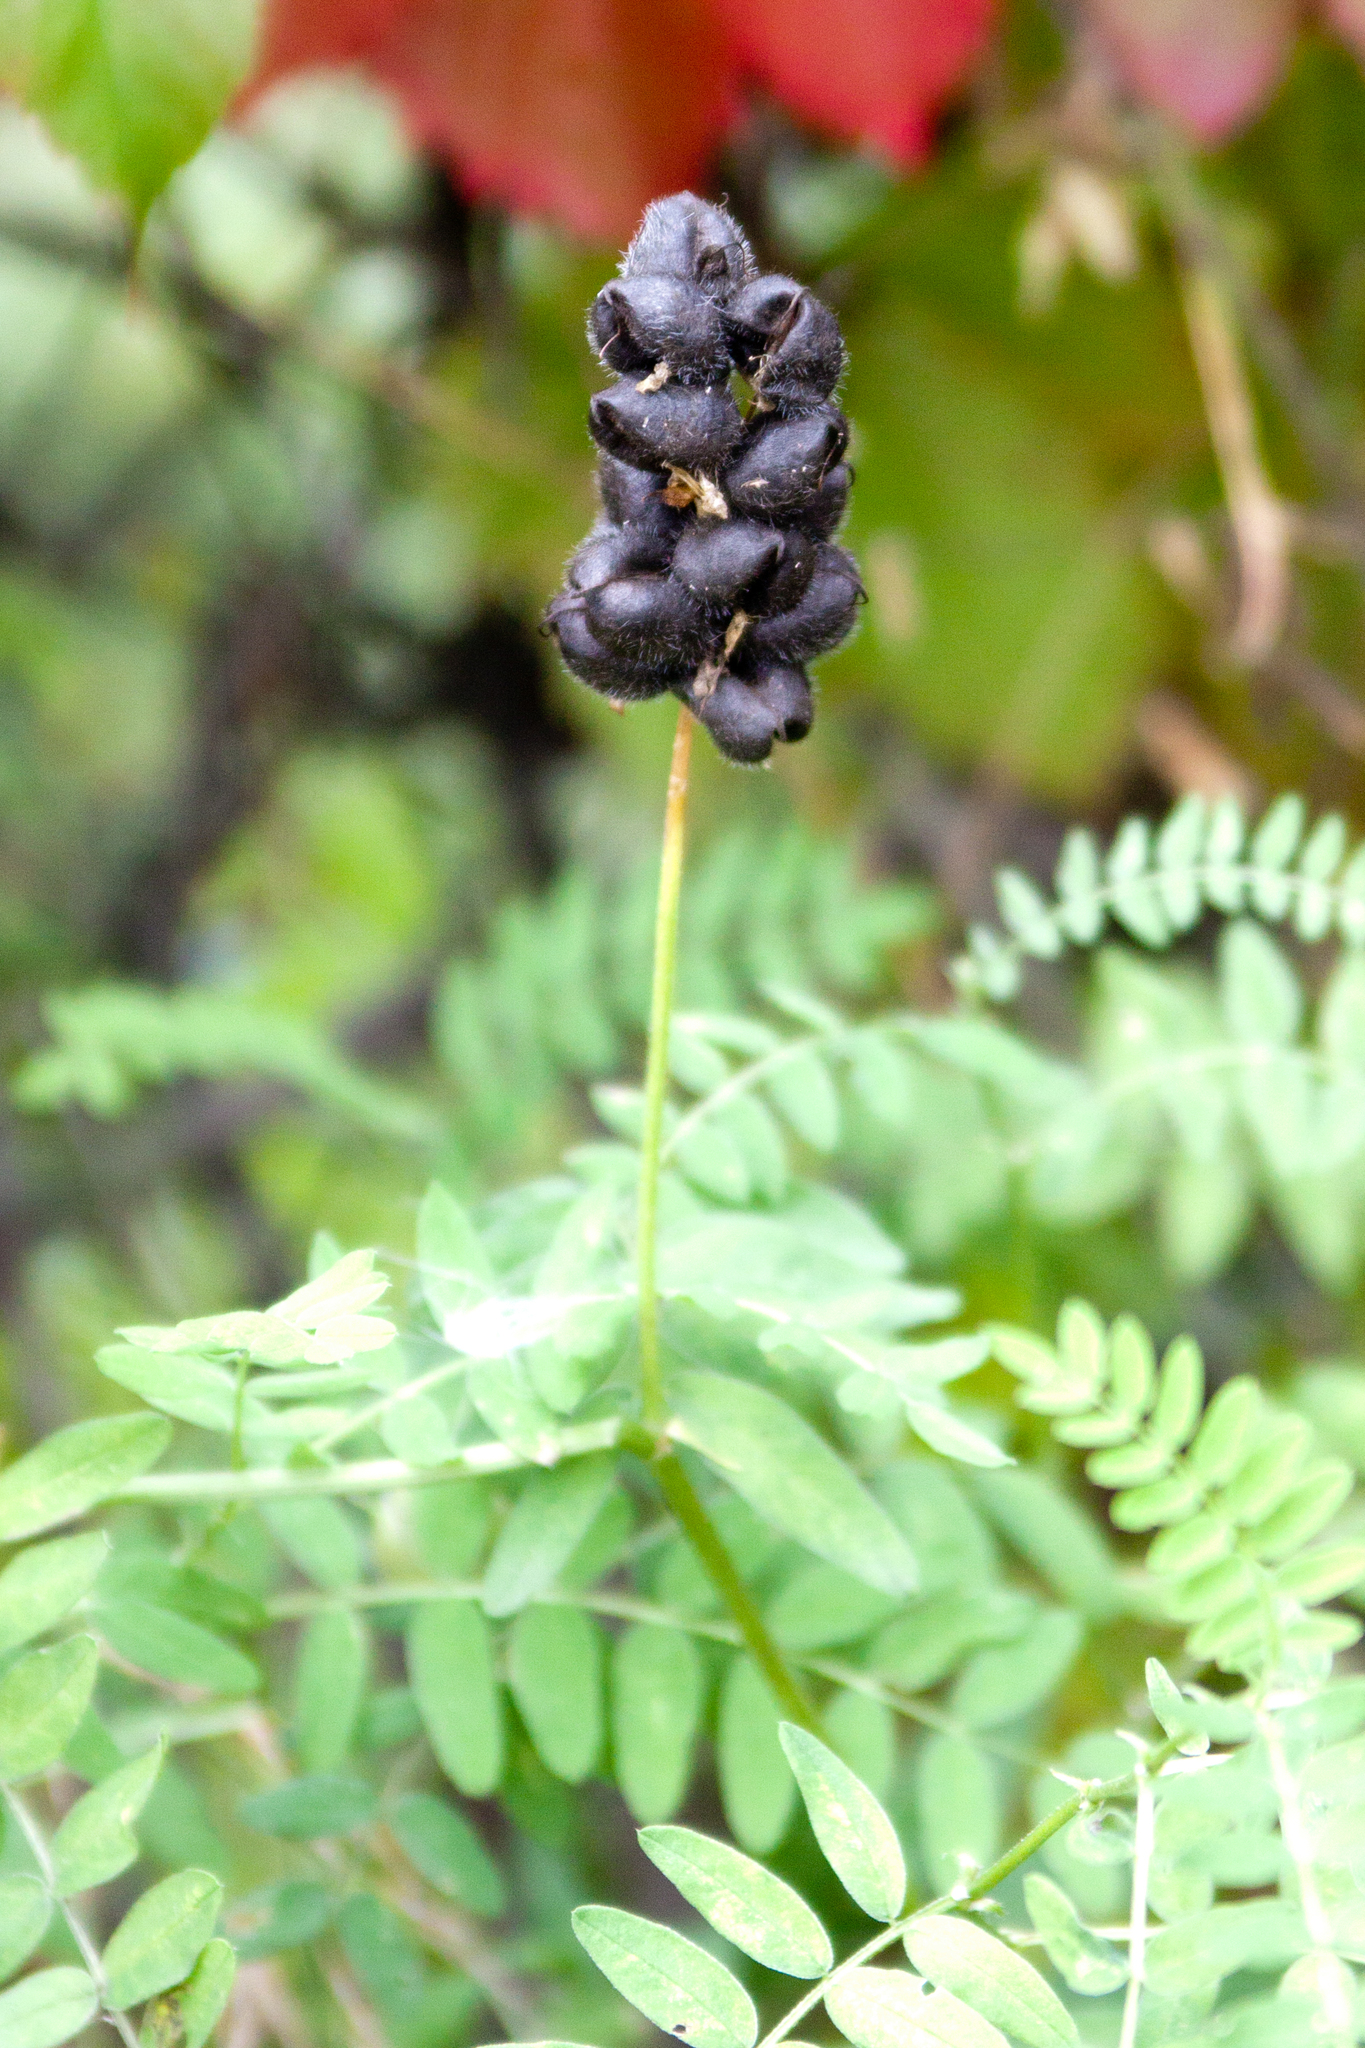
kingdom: Plantae
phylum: Tracheophyta
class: Magnoliopsida
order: Fabales
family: Fabaceae
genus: Astragalus
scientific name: Astragalus cicer
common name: Chick-pea milk-vetch
